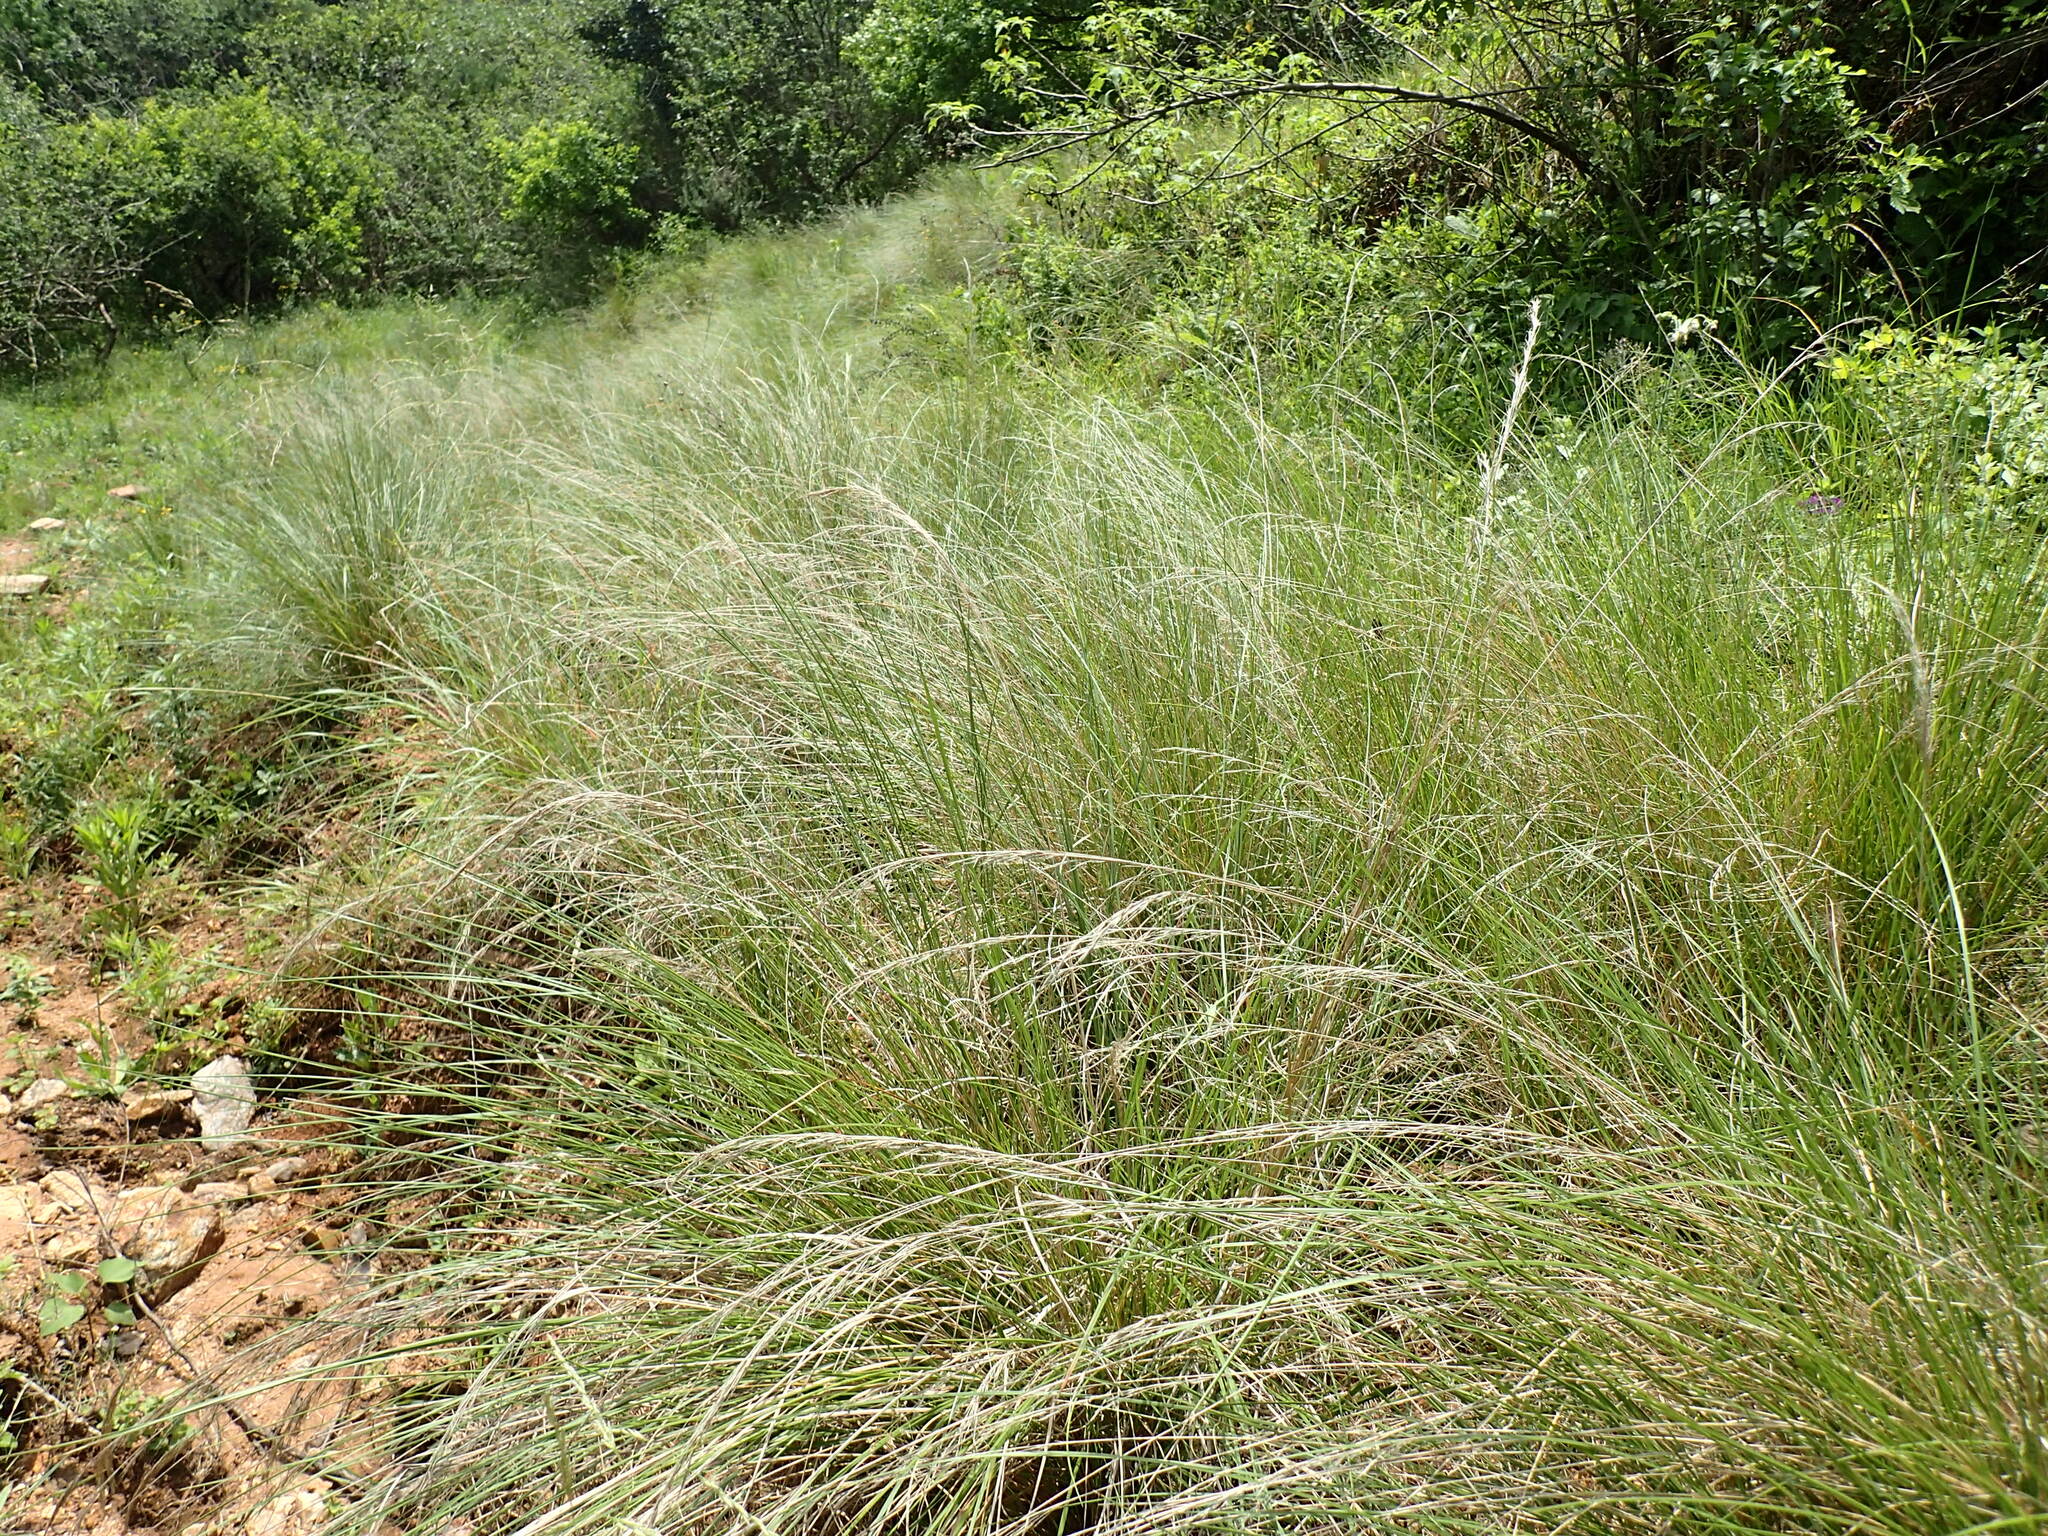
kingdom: Plantae
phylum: Tracheophyta
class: Liliopsida
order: Poales
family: Poaceae
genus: Aristida
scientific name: Aristida junciformis
